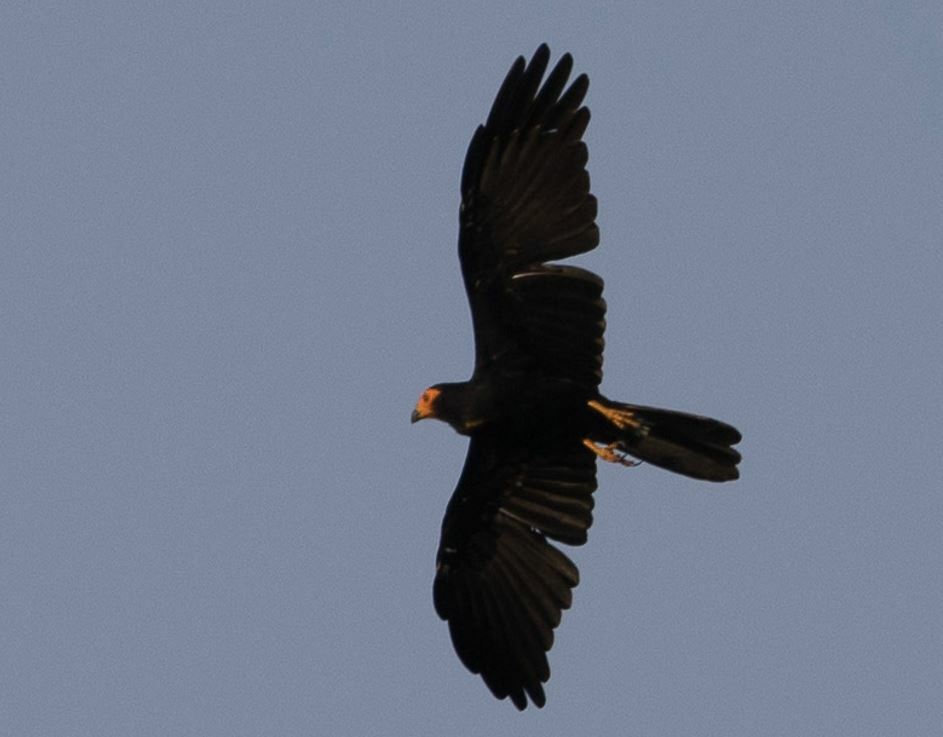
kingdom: Animalia
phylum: Chordata
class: Aves
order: Falconiformes
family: Falconidae
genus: Daptrius
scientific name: Daptrius ater
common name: Black caracara
